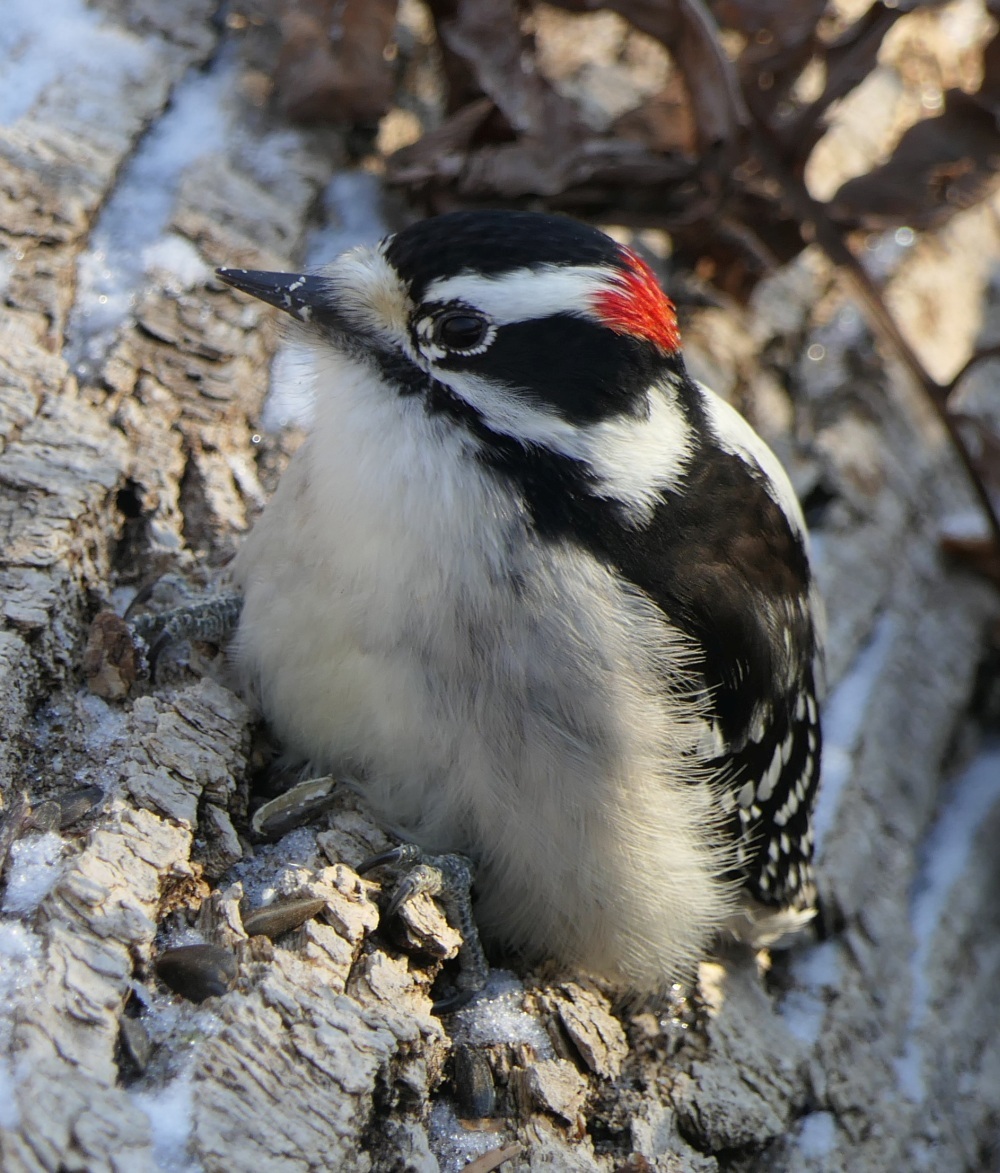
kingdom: Animalia
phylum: Chordata
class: Aves
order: Piciformes
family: Picidae
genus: Dryobates
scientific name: Dryobates pubescens
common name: Downy woodpecker
